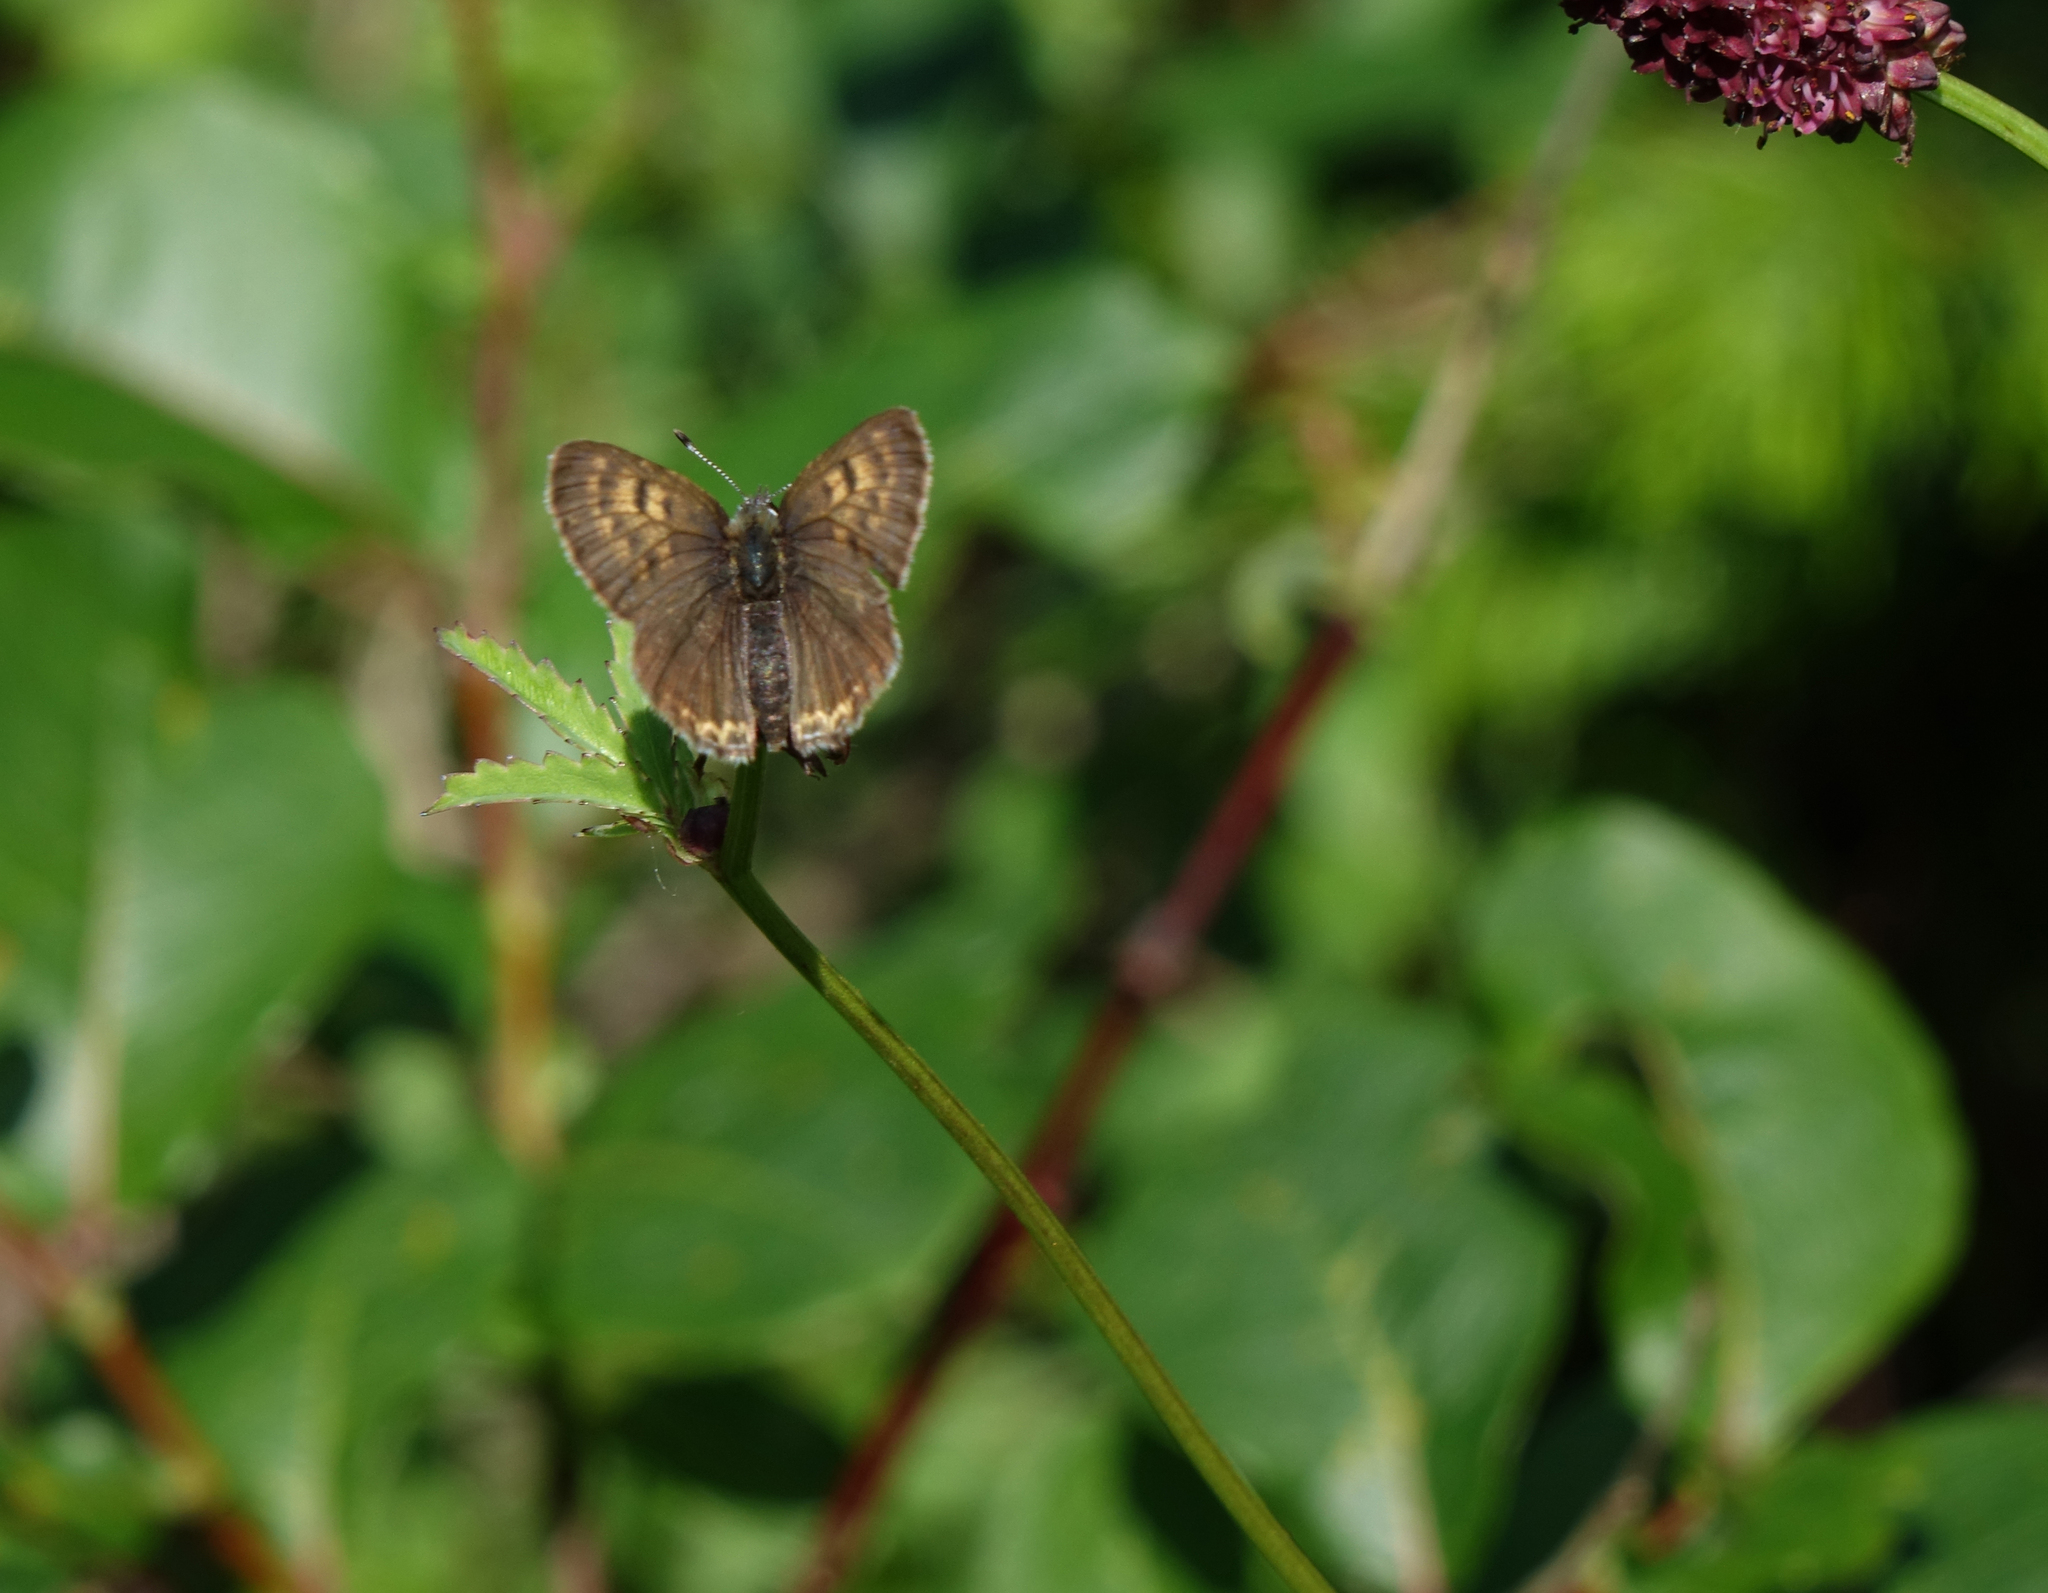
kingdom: Animalia
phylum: Arthropoda
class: Insecta
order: Lepidoptera
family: Lycaenidae
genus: Helleia
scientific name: Helleia helle
